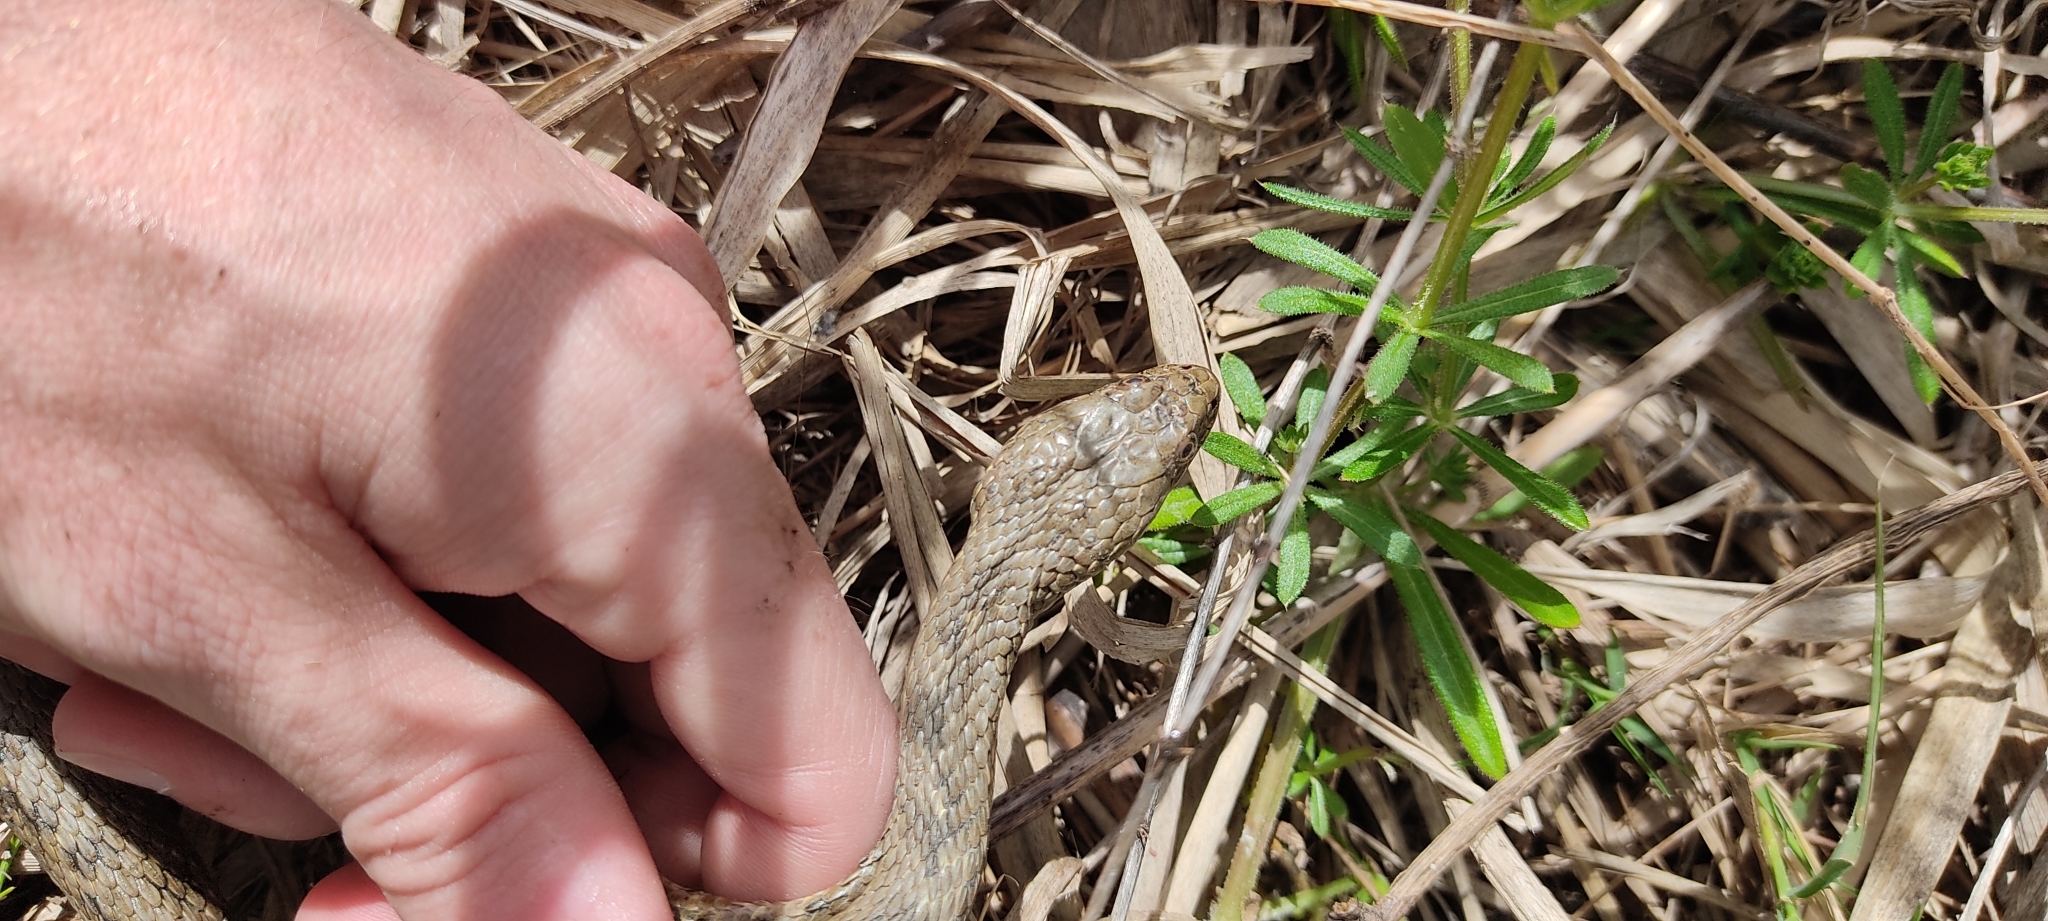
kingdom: Animalia
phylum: Chordata
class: Squamata
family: Colubridae
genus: Natrix
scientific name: Natrix maura
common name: Viperine water snake
